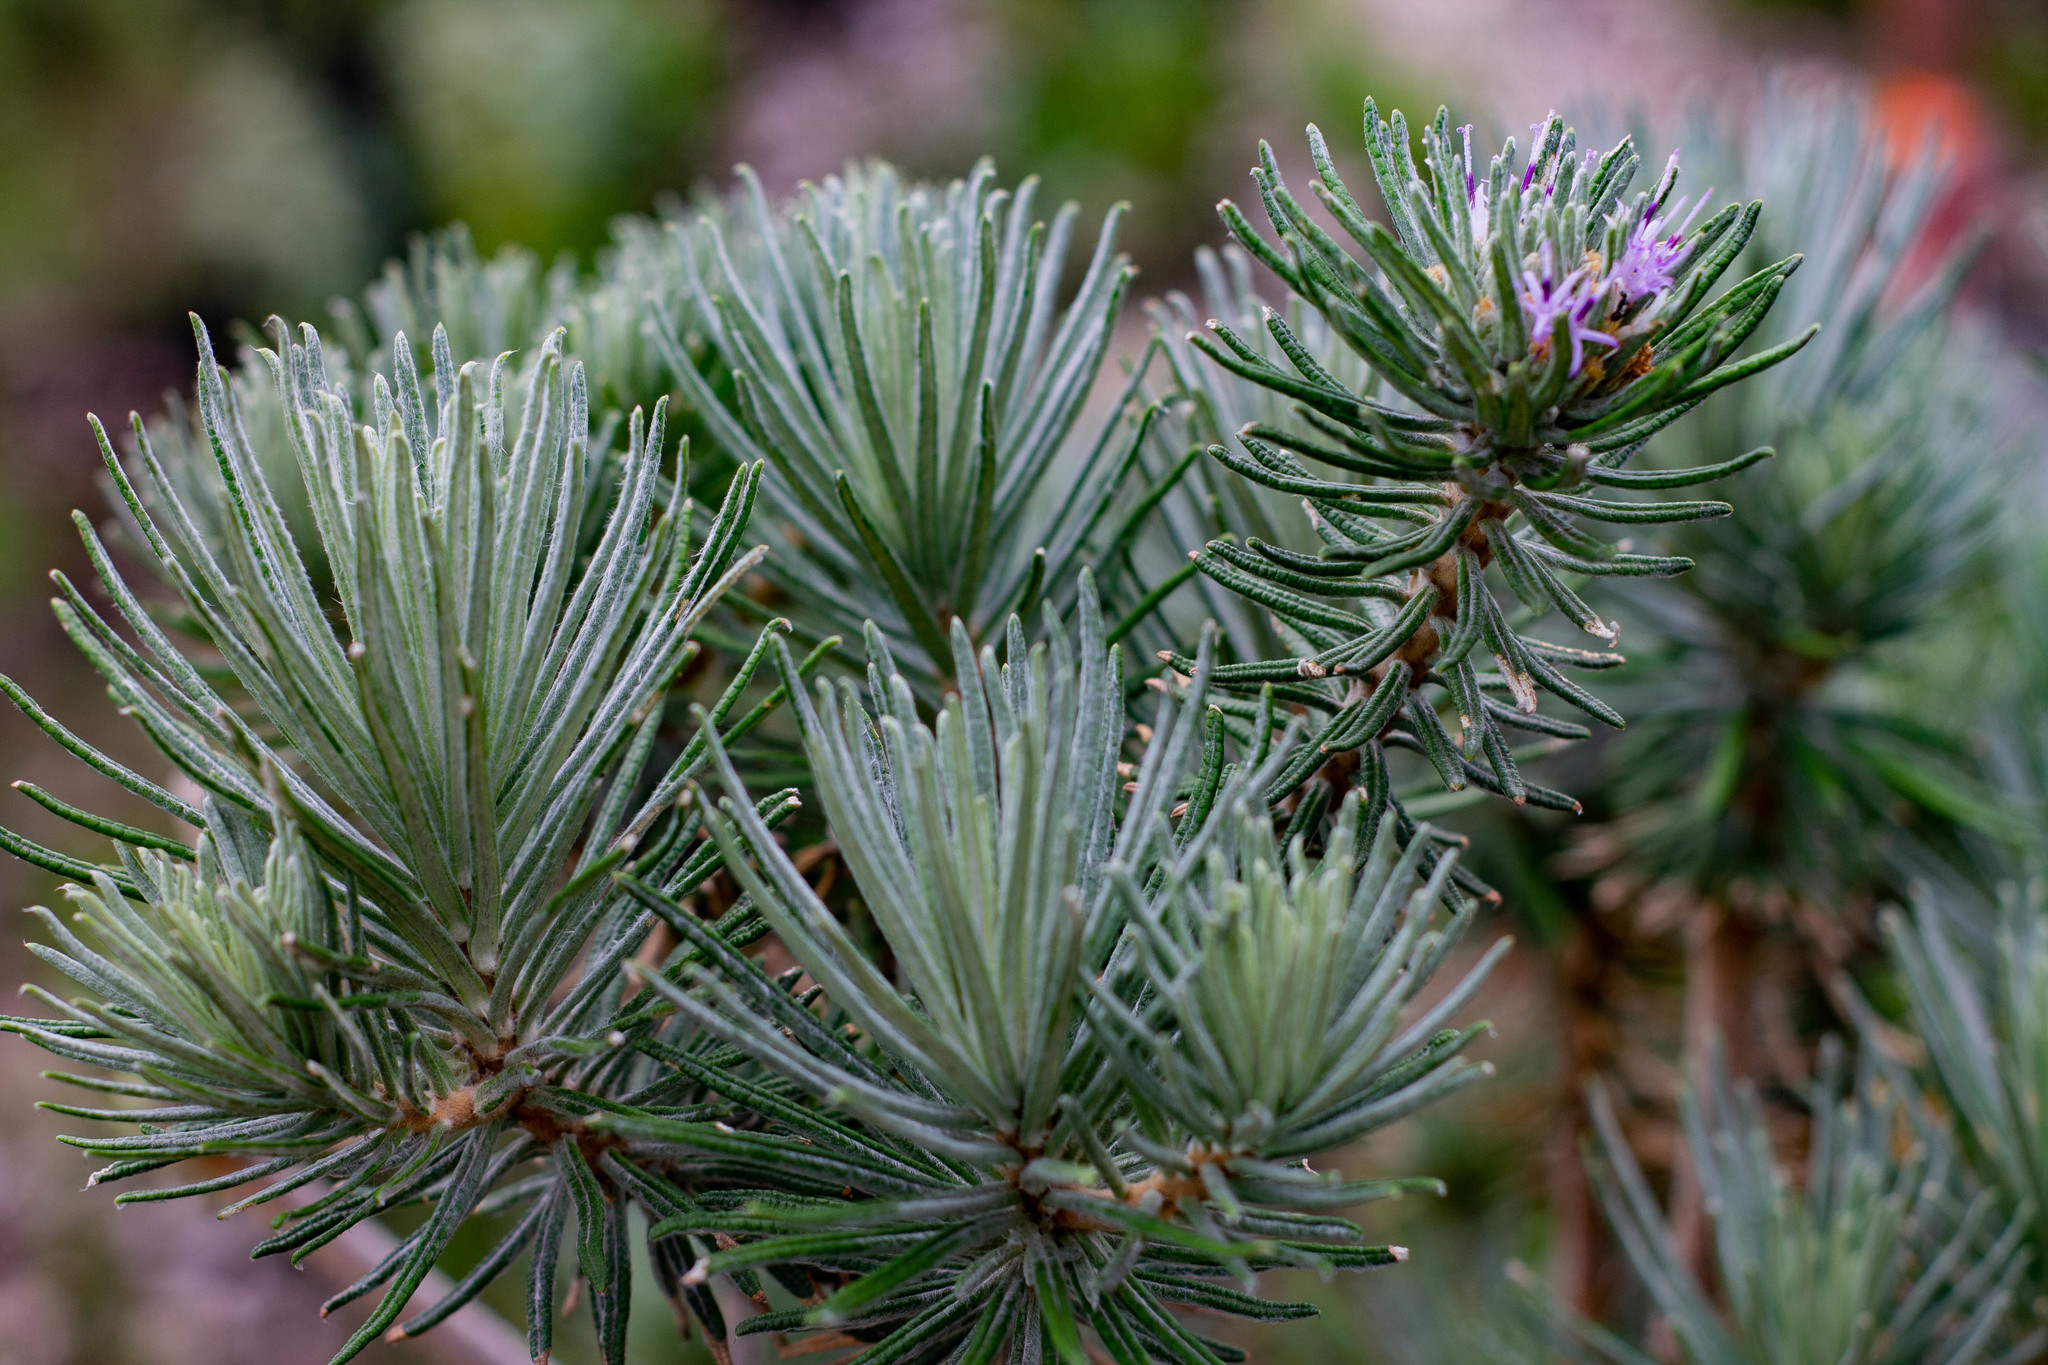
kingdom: Plantae
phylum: Tracheophyta
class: Magnoliopsida
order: Asterales
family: Asteraceae
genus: Lychnophora
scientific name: Lychnophora ericoides
